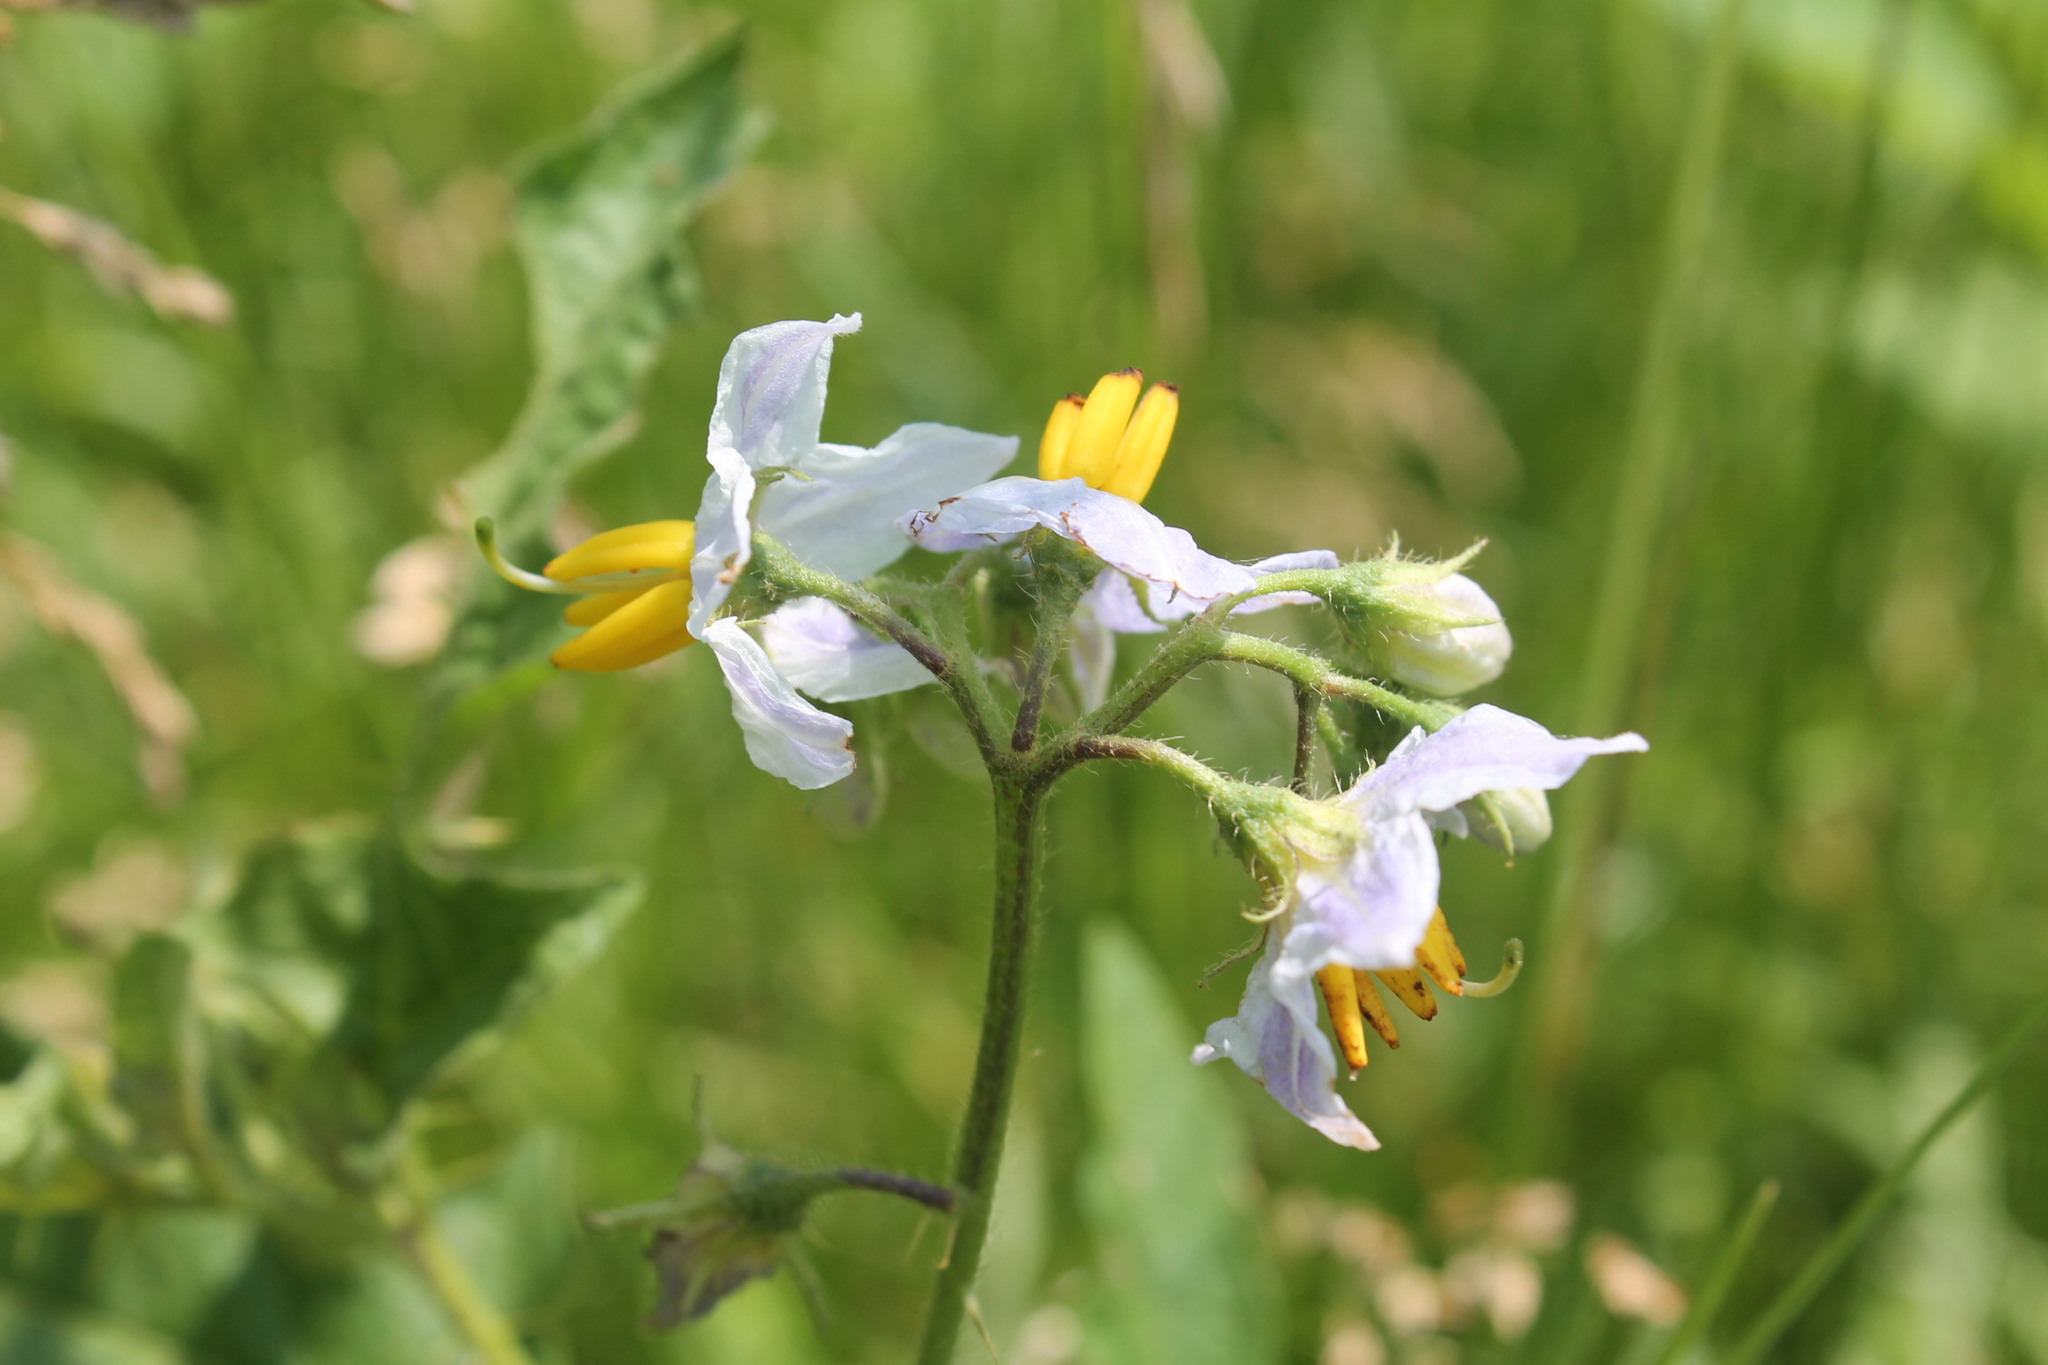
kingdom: Plantae
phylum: Tracheophyta
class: Magnoliopsida
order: Solanales
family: Solanaceae
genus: Solanum
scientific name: Solanum carolinense
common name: Horse-nettle
